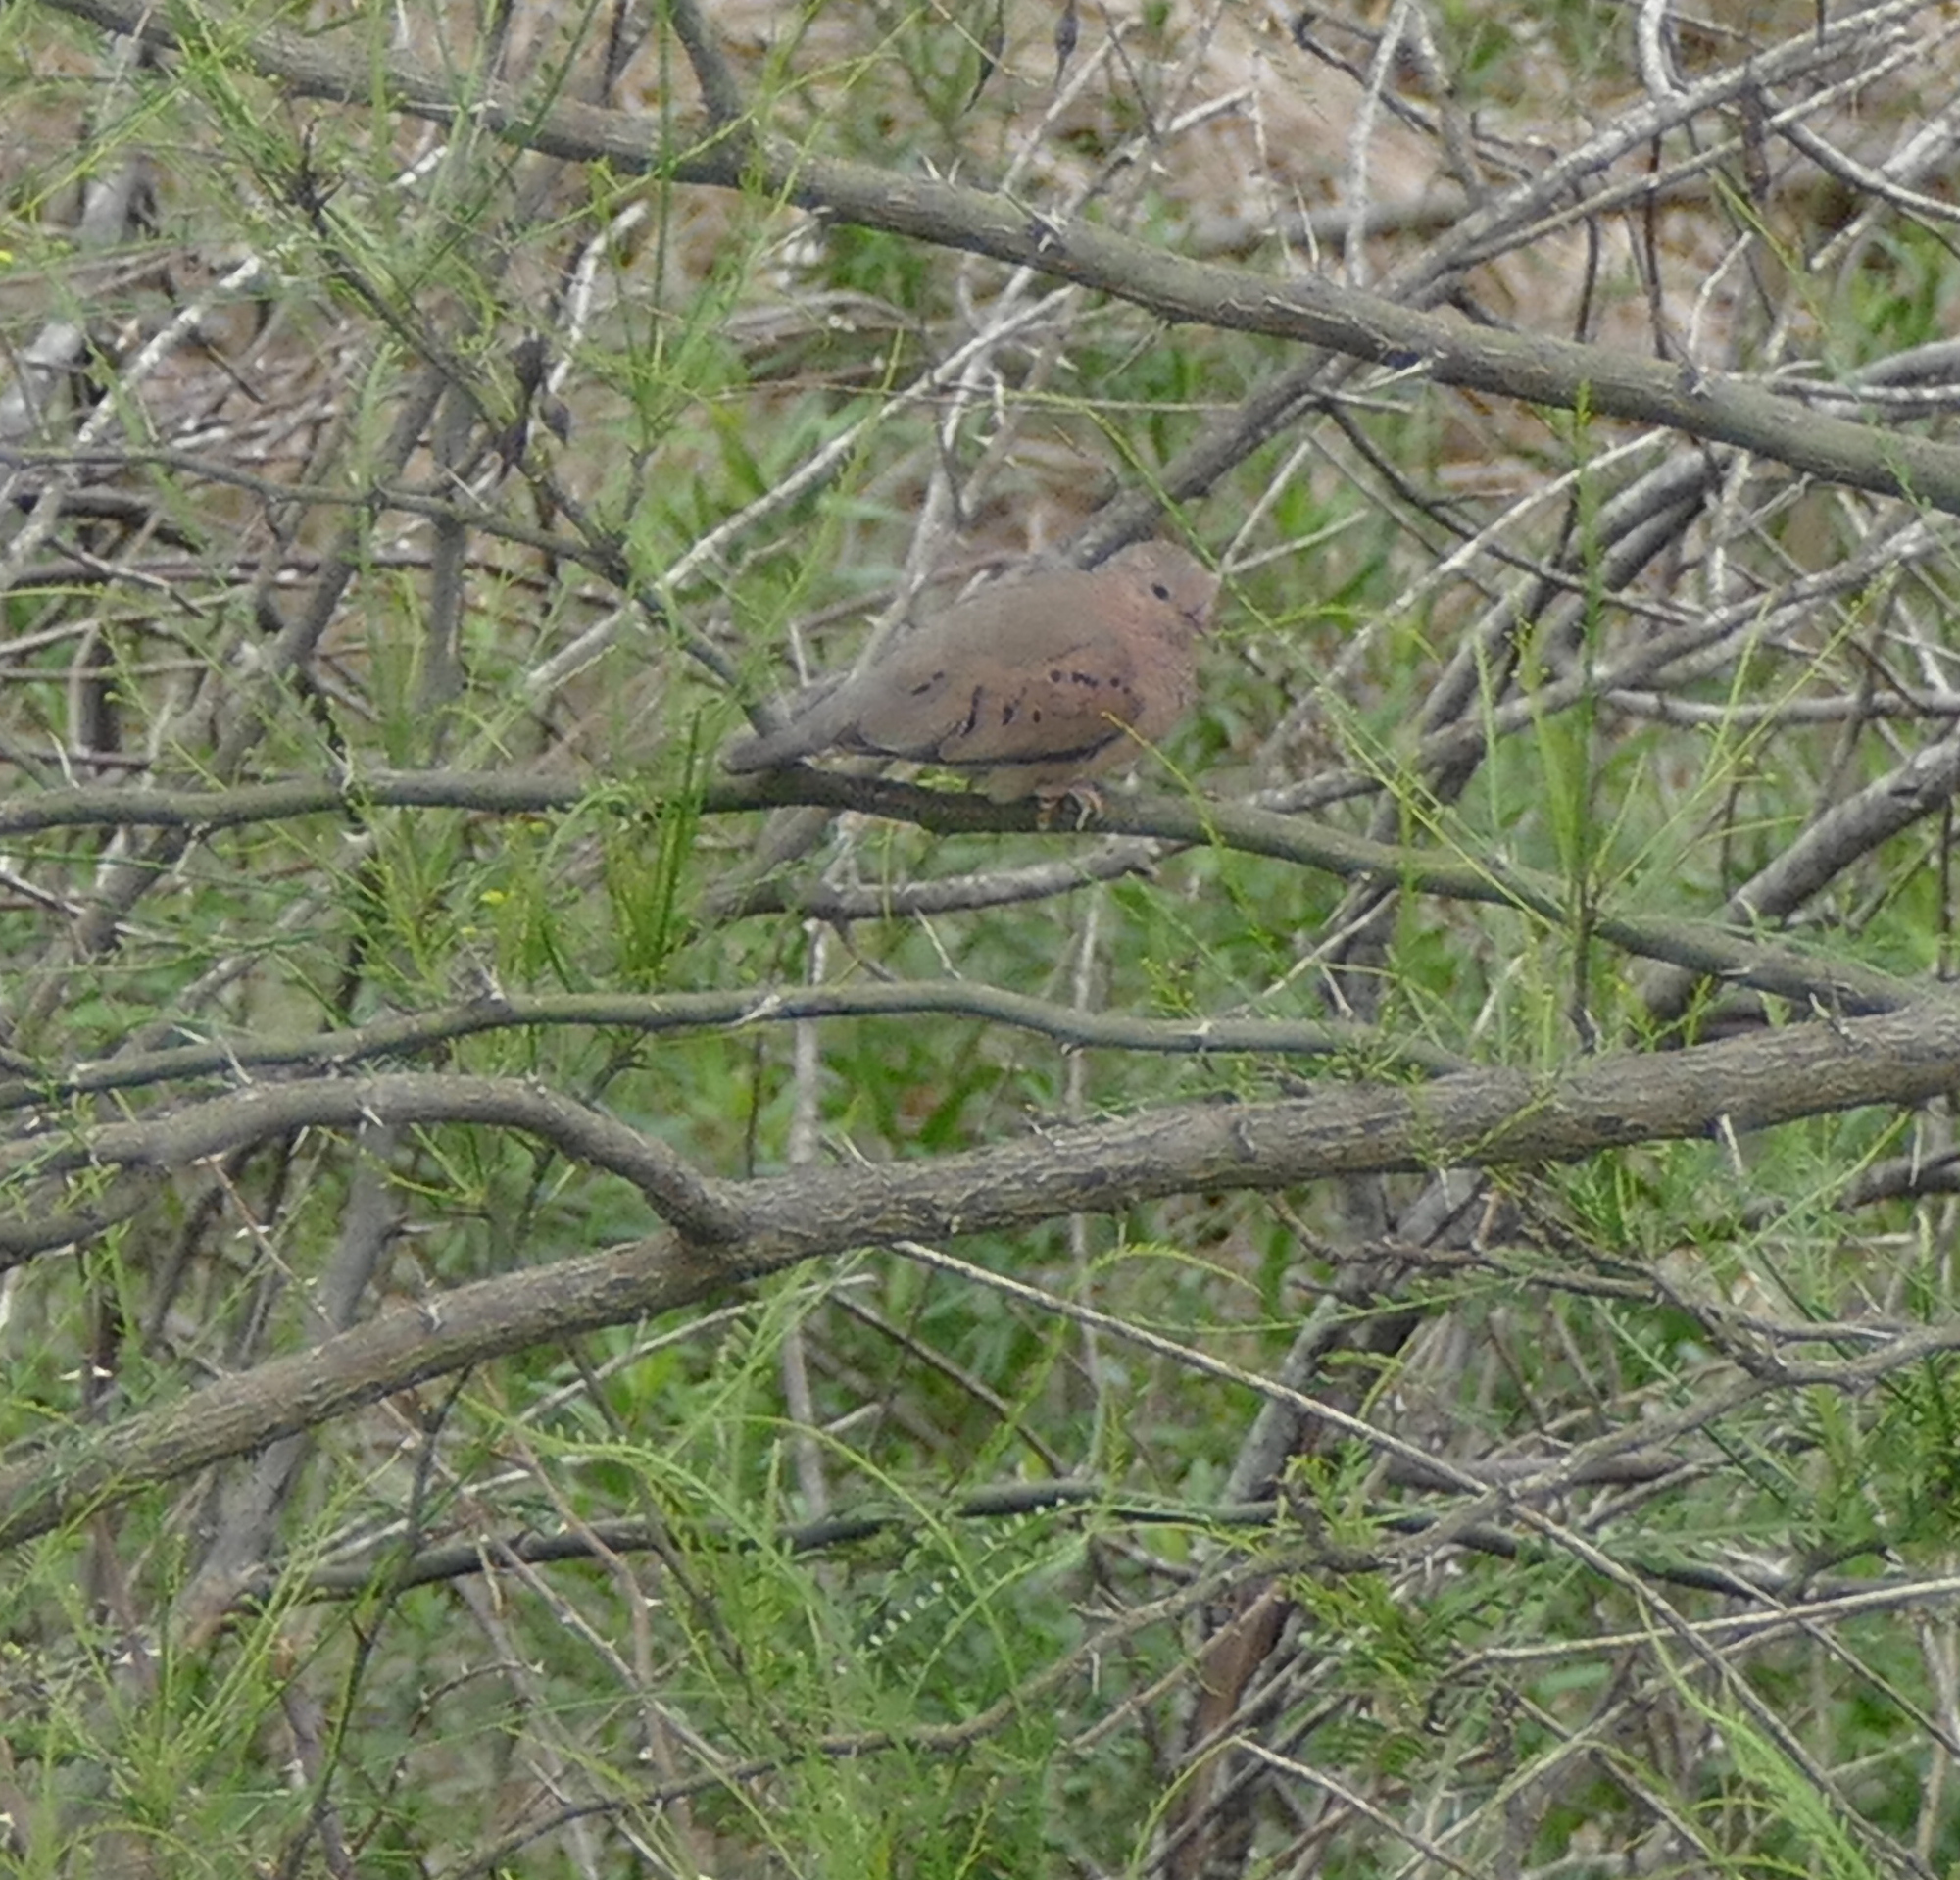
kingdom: Animalia
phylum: Chordata
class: Aves
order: Columbiformes
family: Columbidae
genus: Columbina
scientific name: Columbina passerina
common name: Common ground-dove
